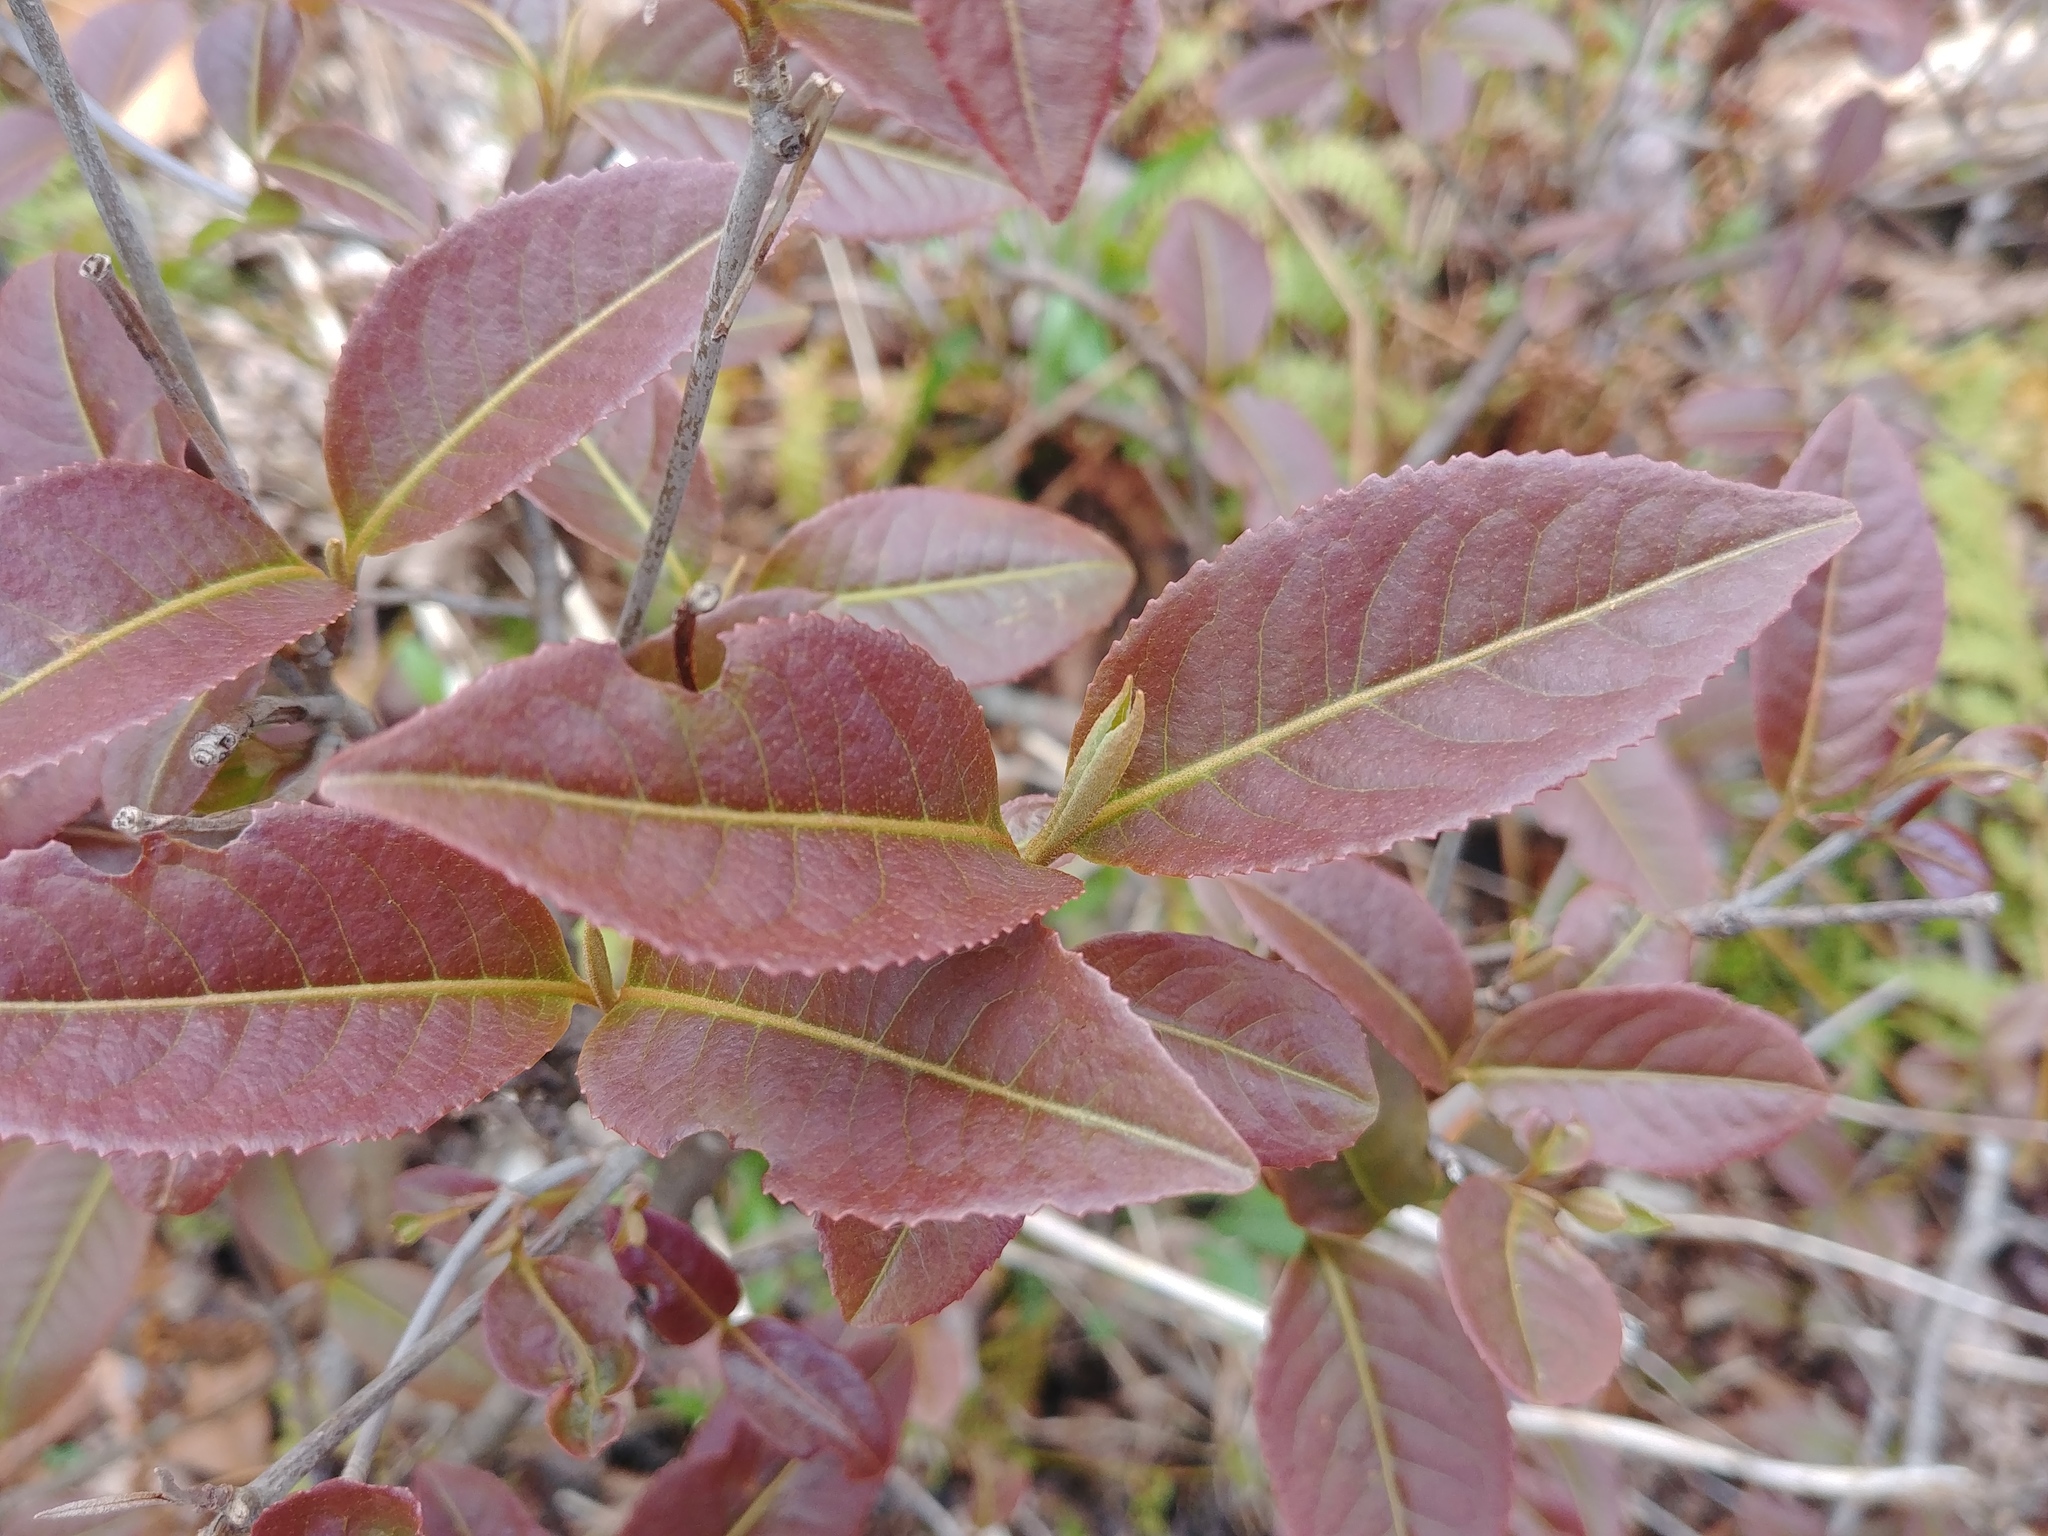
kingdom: Plantae
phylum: Tracheophyta
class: Magnoliopsida
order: Dipsacales
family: Viburnaceae
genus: Viburnum
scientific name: Viburnum cassinoides
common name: Swamp haw
